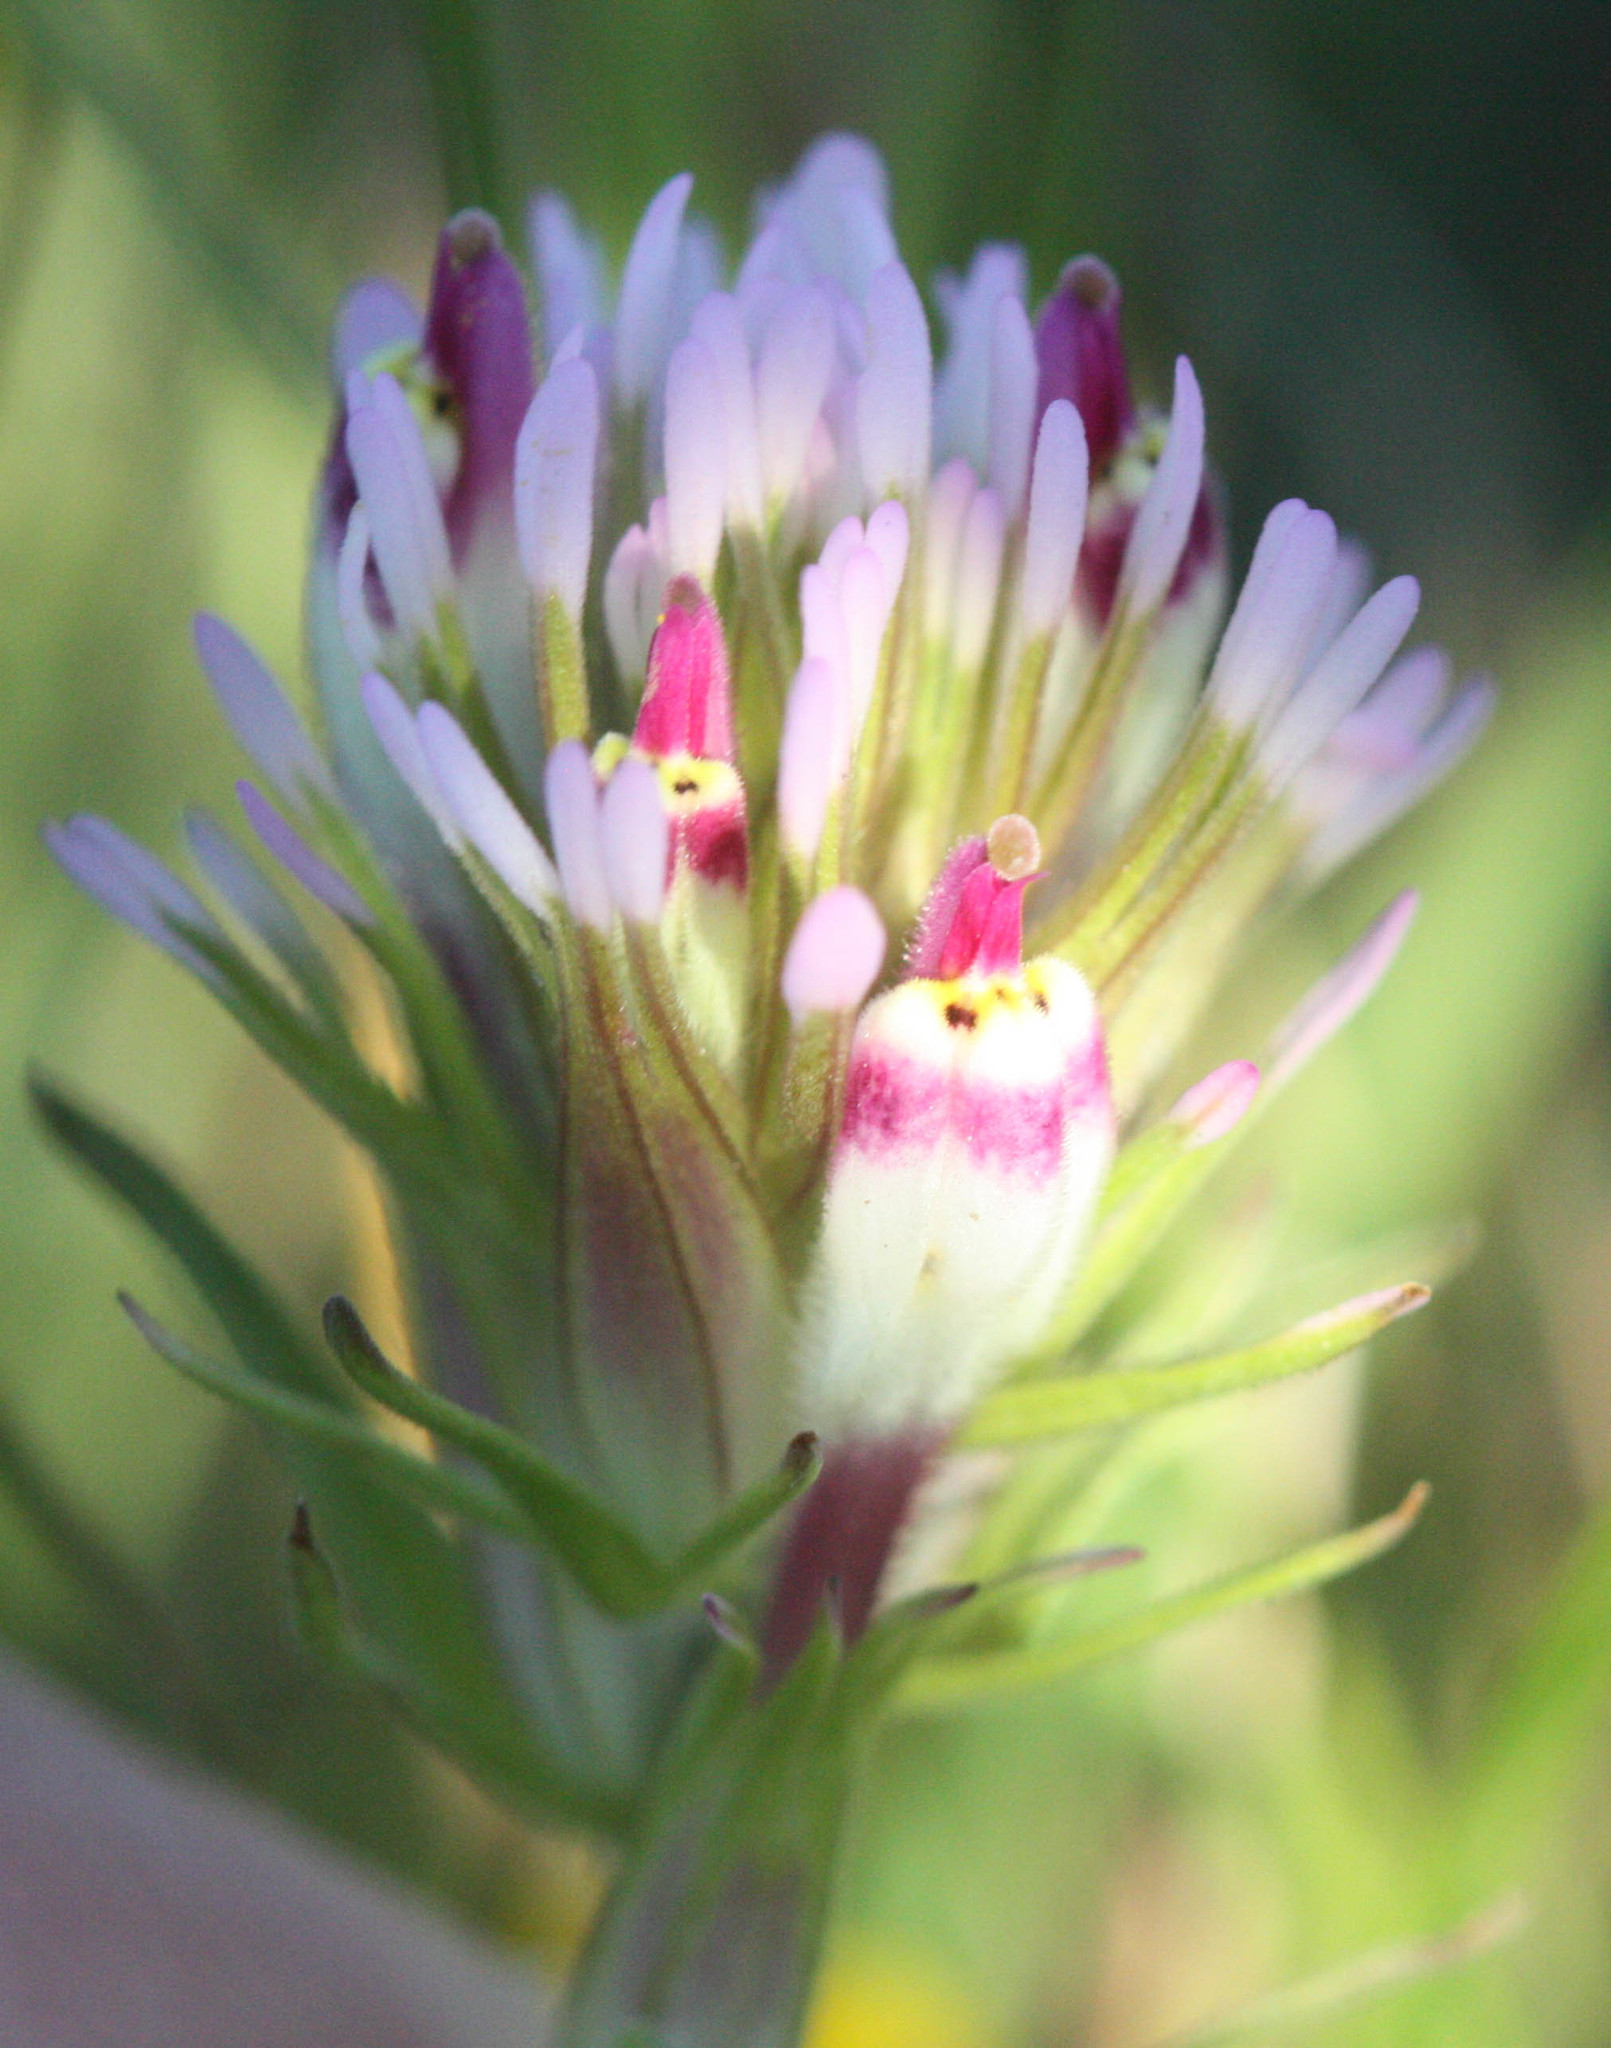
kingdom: Plantae
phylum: Tracheophyta
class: Magnoliopsida
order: Lamiales
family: Orobanchaceae
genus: Castilleja
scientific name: Castilleja densiflora
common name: Dense-flower indian paintbrush
